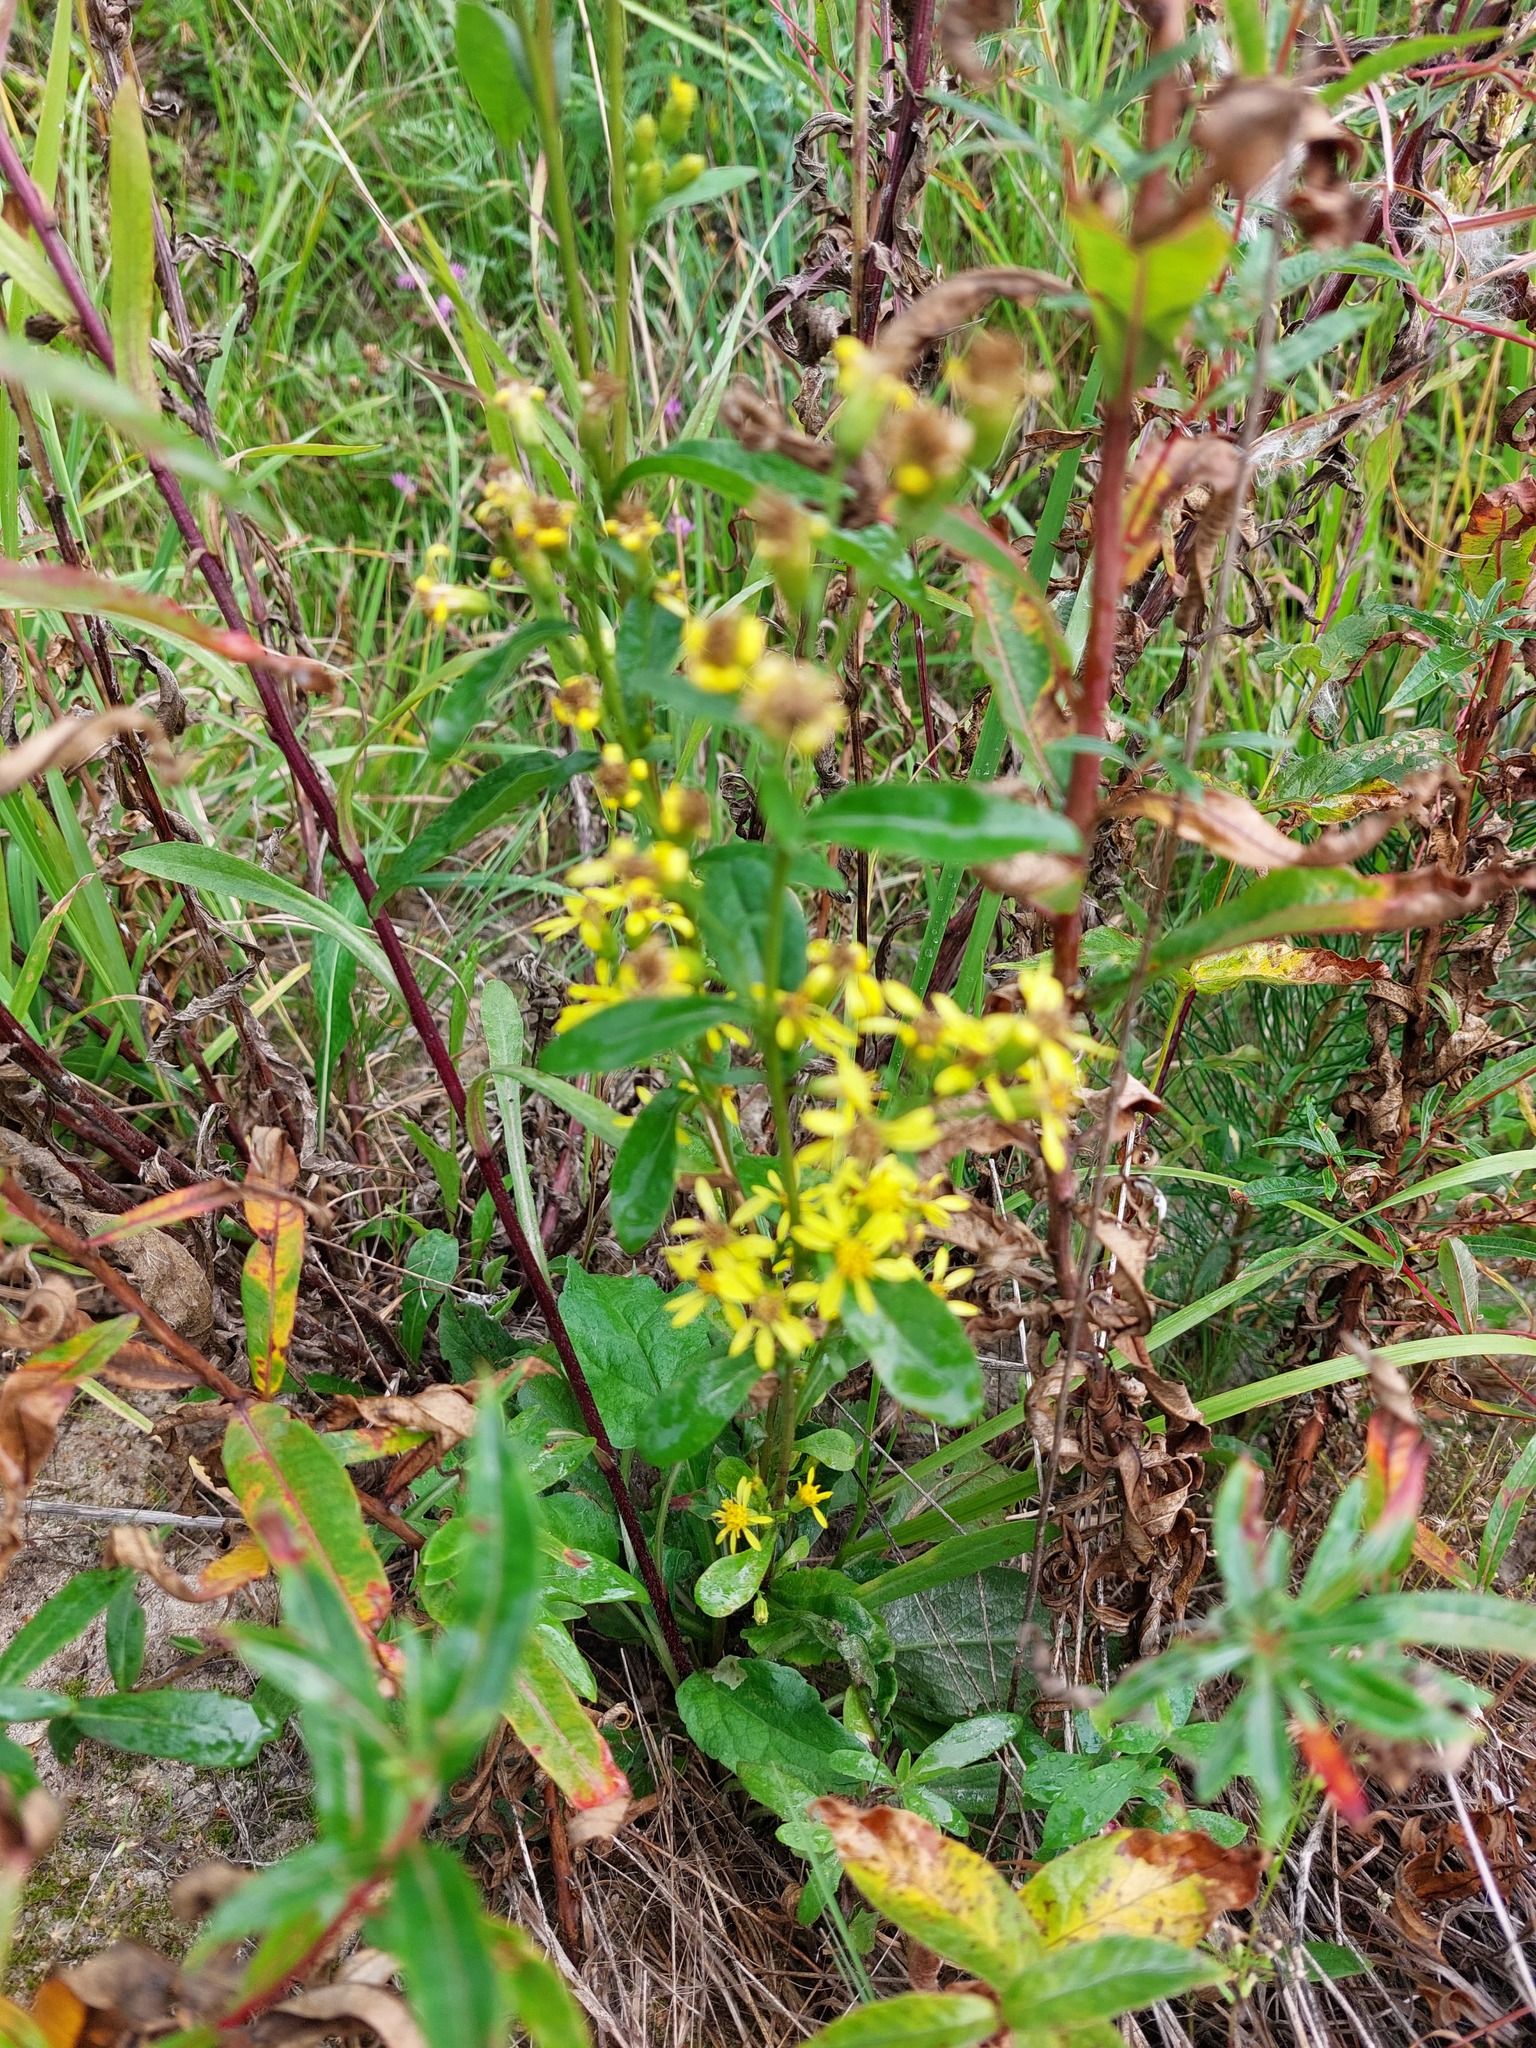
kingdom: Plantae
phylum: Tracheophyta
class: Magnoliopsida
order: Asterales
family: Asteraceae
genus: Solidago
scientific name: Solidago virgaurea
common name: Goldenrod
